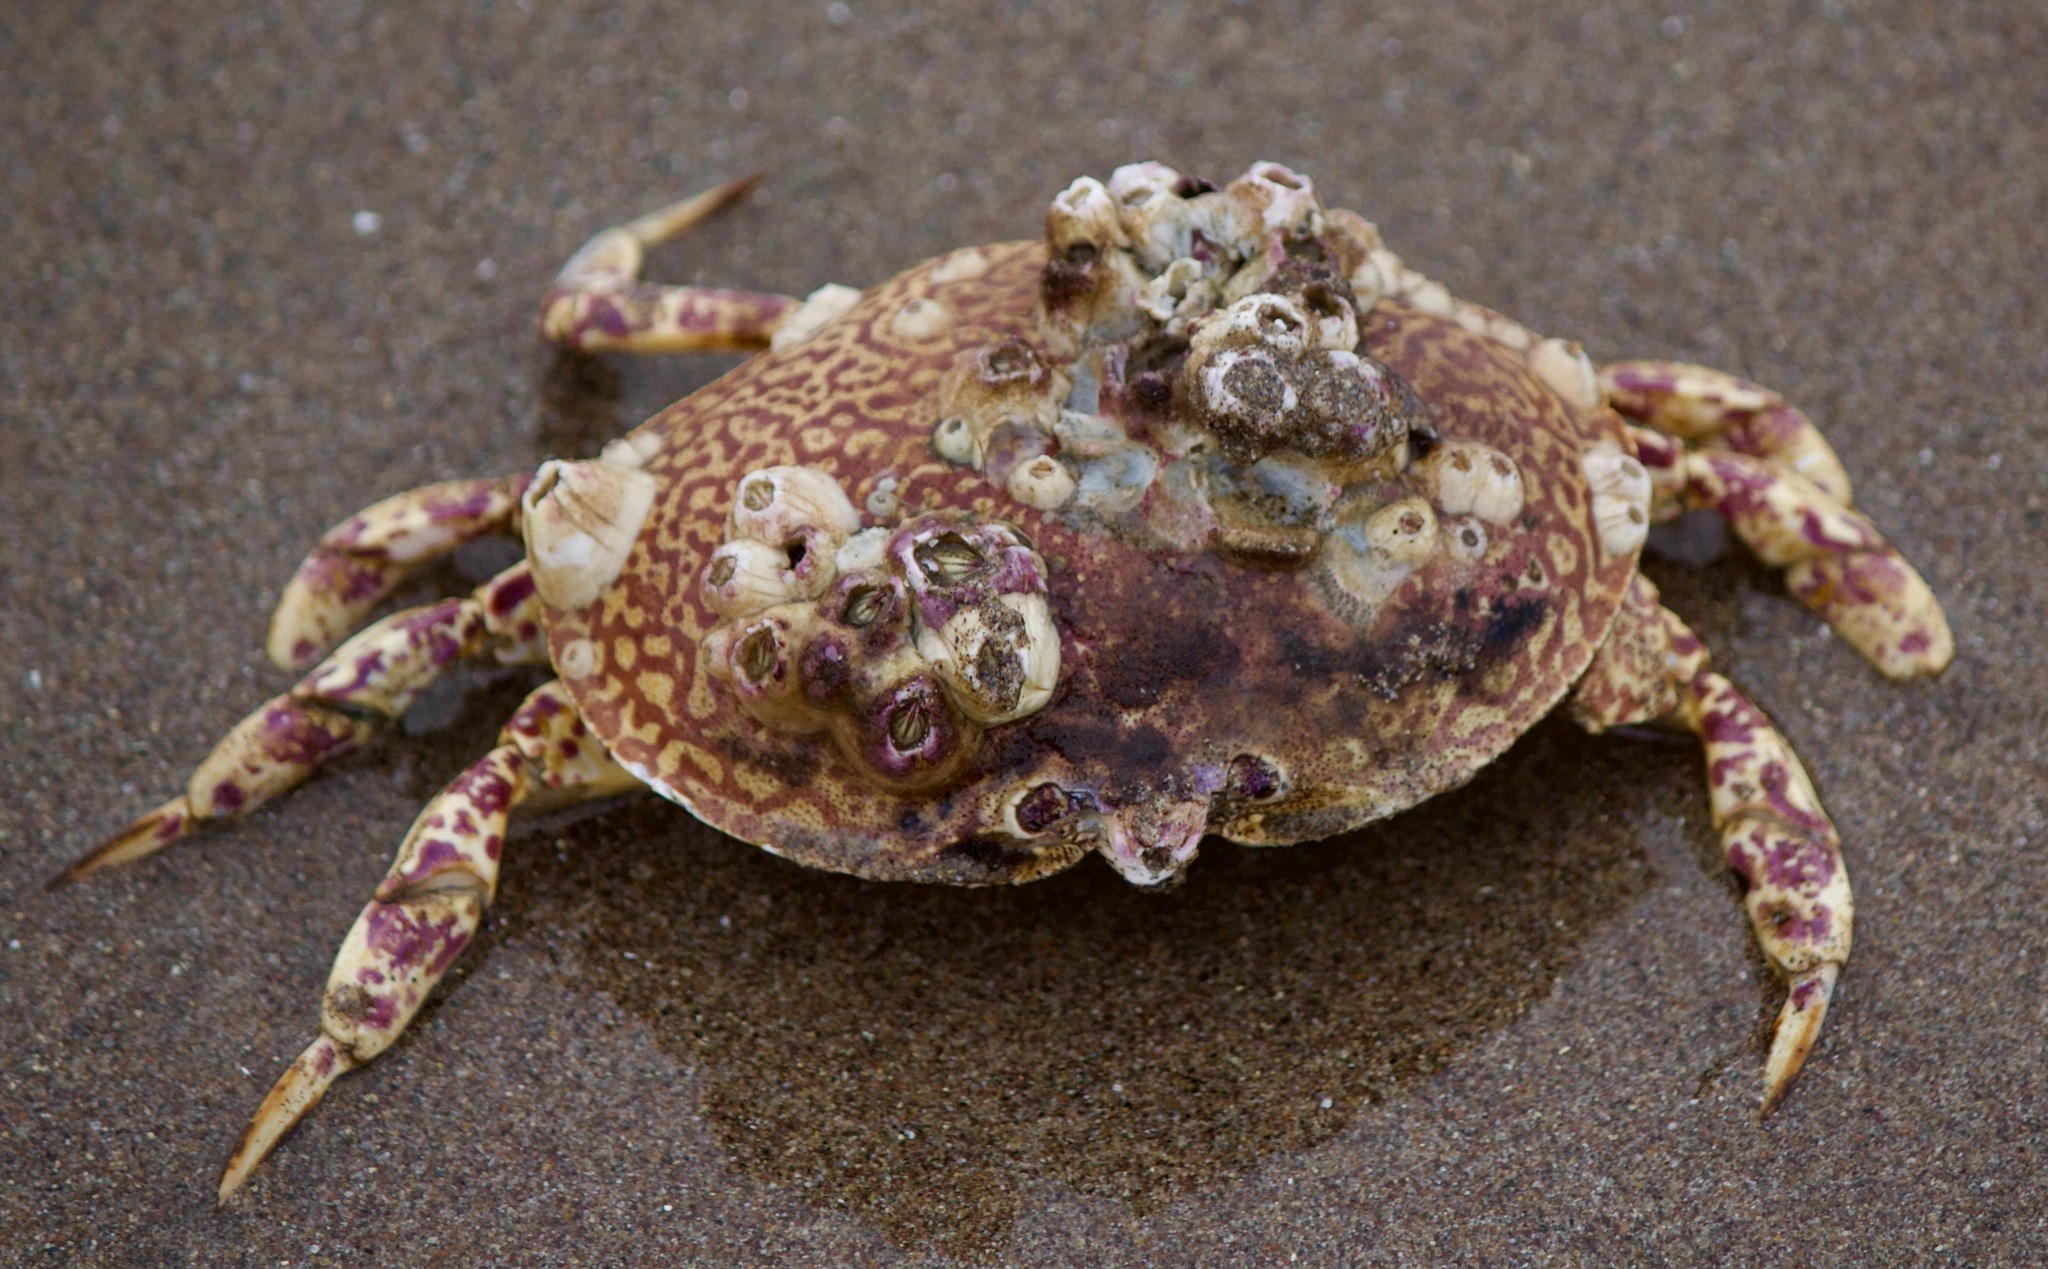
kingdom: Animalia
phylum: Arthropoda
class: Malacostraca
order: Decapoda
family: Aethridae
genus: Hepatus
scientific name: Hepatus chiliensis
